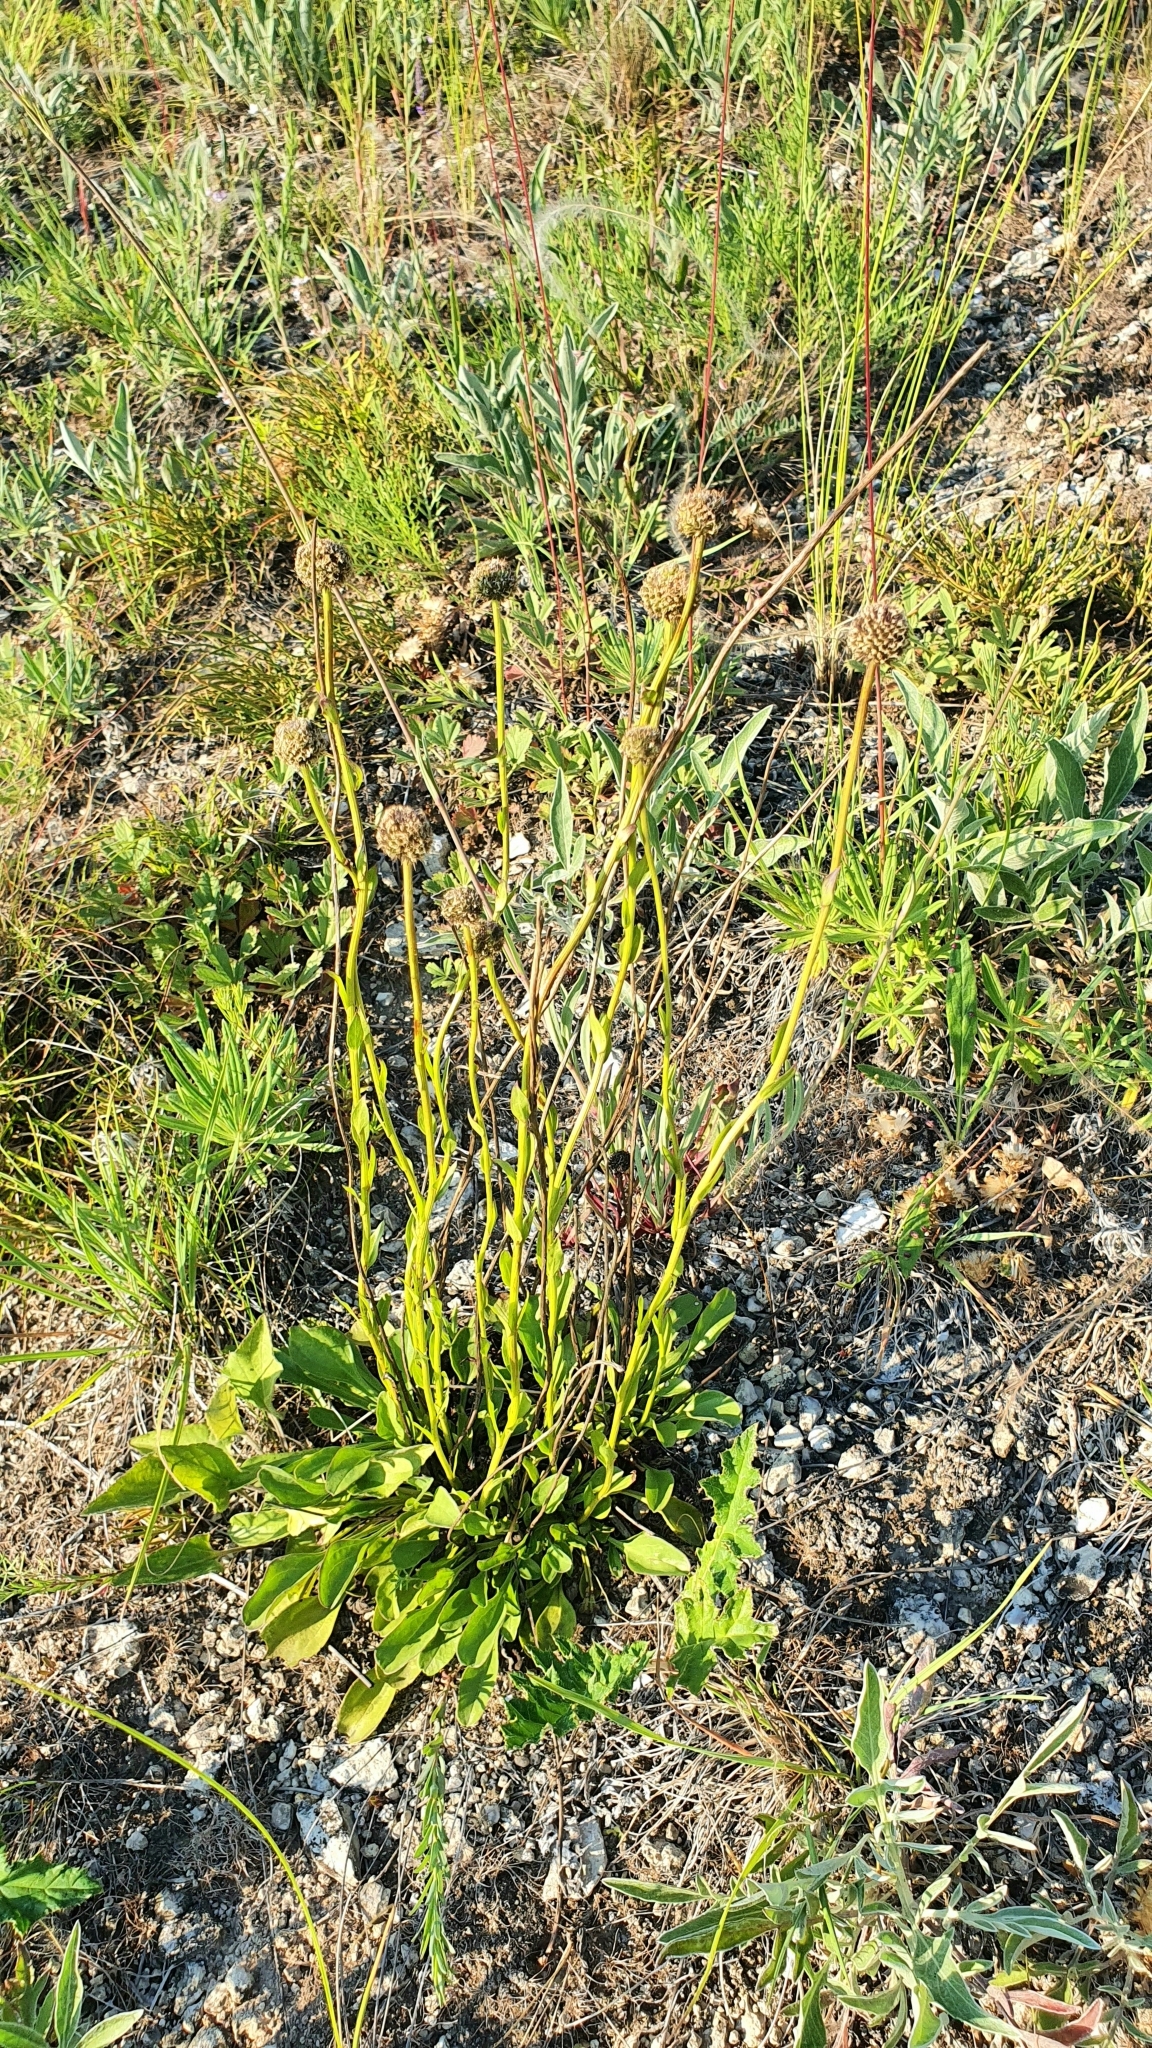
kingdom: Plantae
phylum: Tracheophyta
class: Magnoliopsida
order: Lamiales
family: Plantaginaceae
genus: Globularia
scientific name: Globularia bisnagarica
